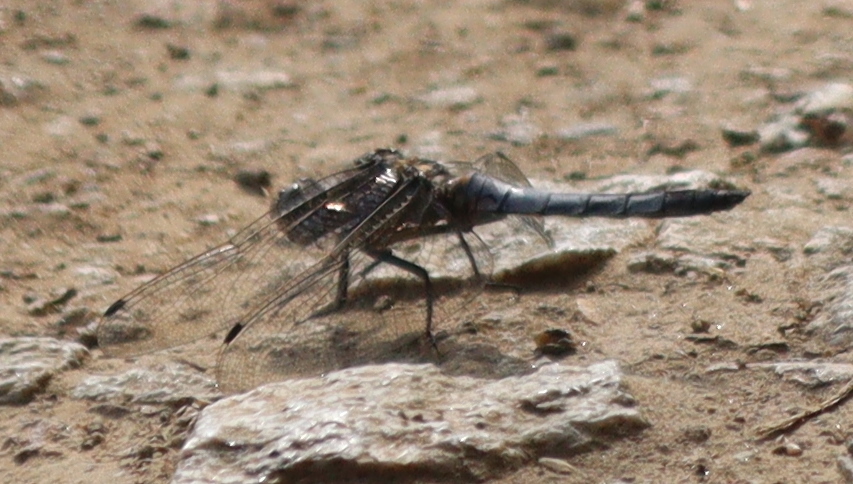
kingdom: Animalia
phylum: Arthropoda
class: Insecta
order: Odonata
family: Libellulidae
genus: Orthetrum
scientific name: Orthetrum cancellatum
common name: Black-tailed skimmer
